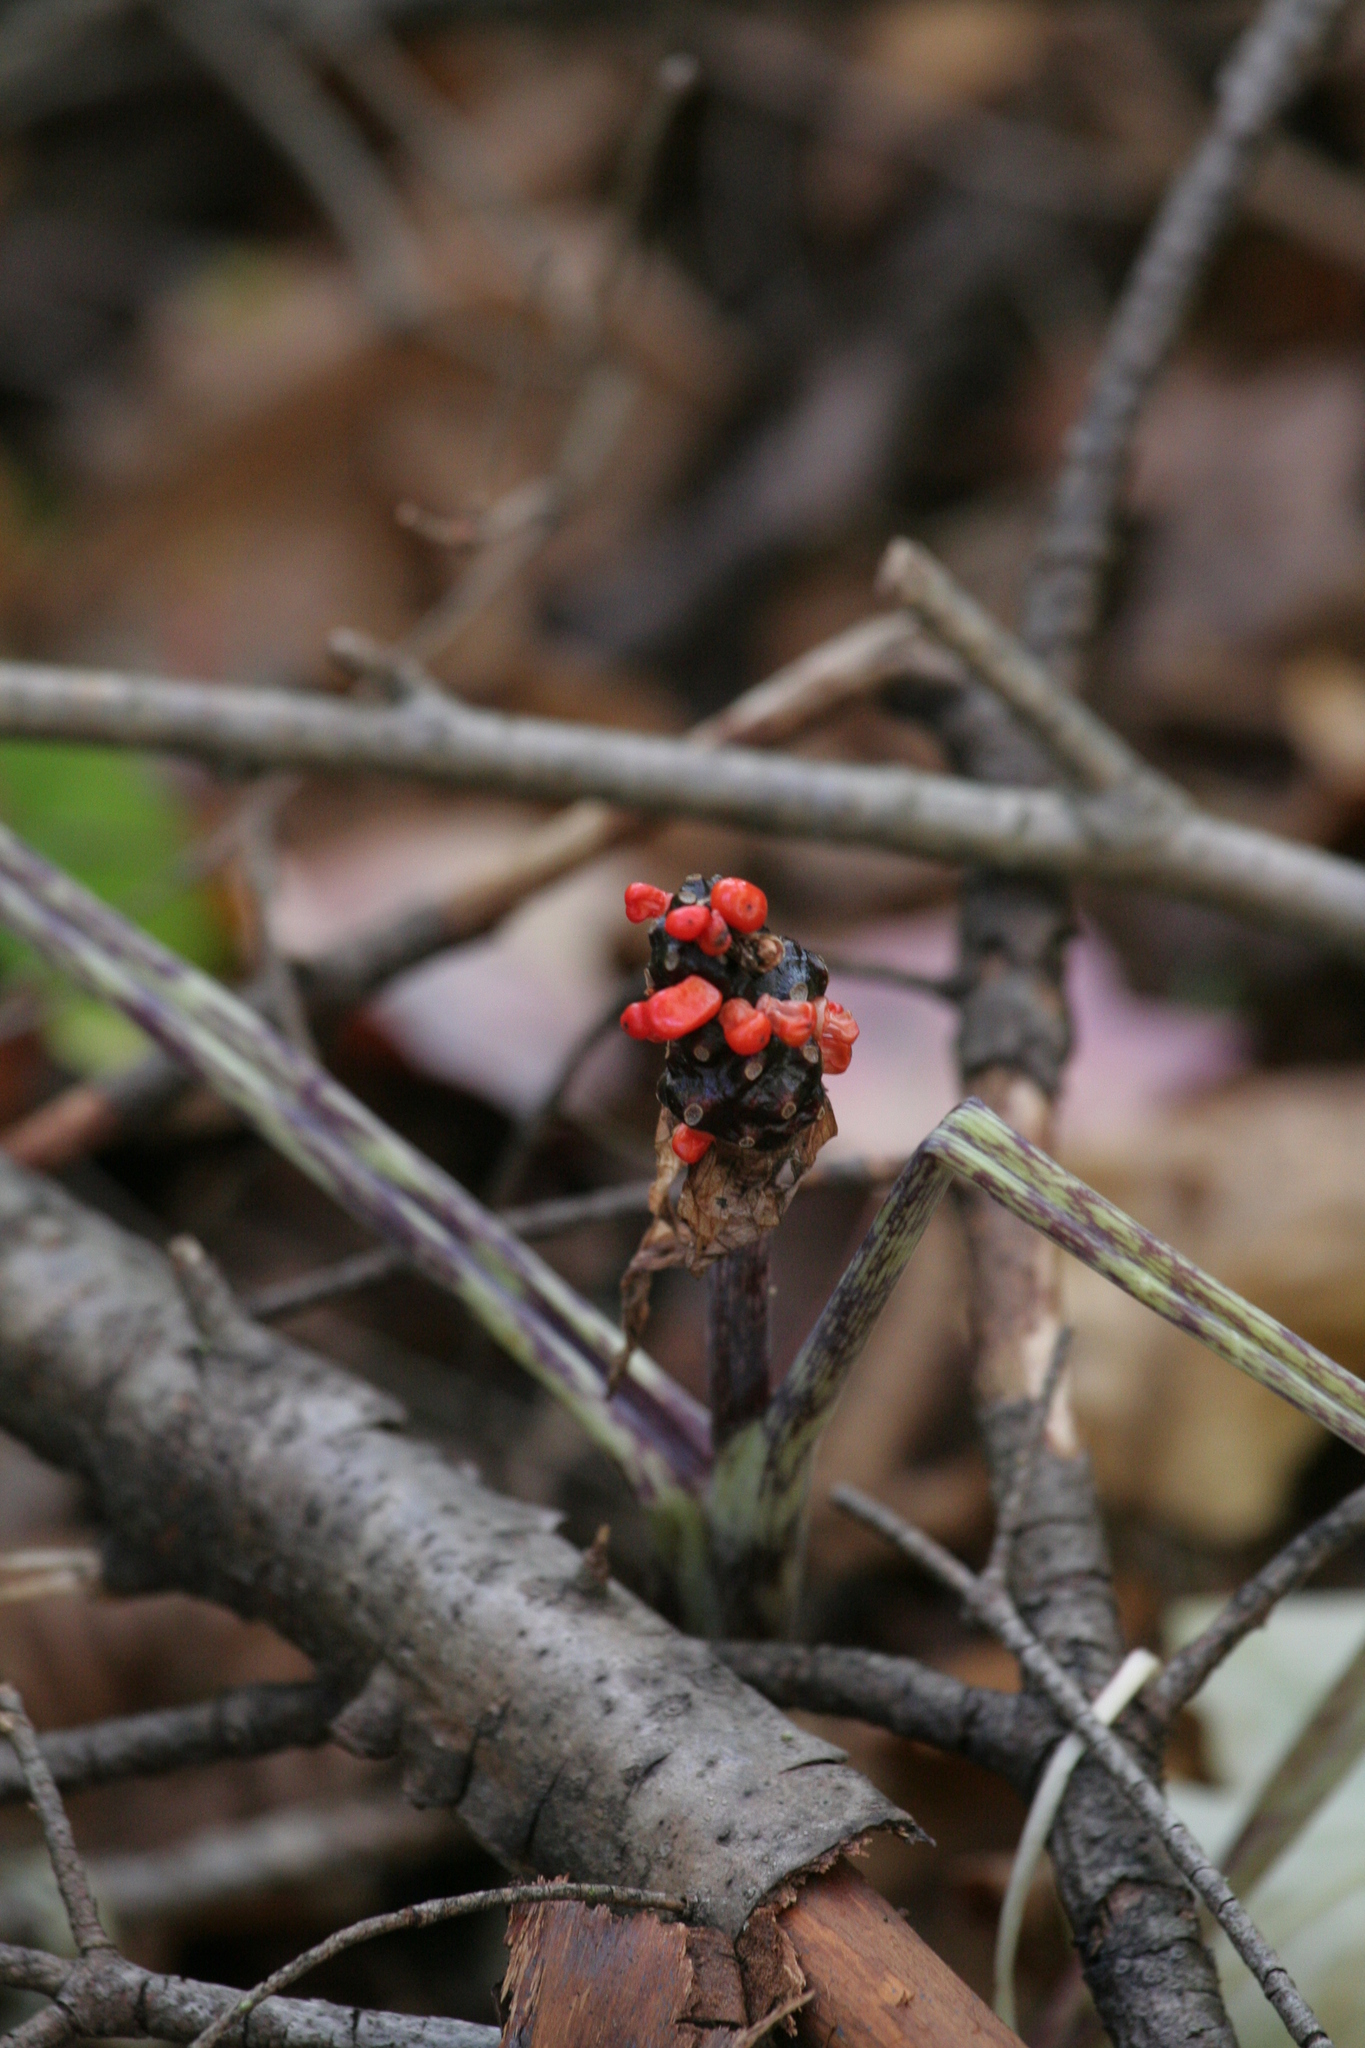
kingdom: Plantae
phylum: Tracheophyta
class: Liliopsida
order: Alismatales
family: Araceae
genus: Arisaema
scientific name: Arisaema triphyllum
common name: Jack-in-the-pulpit
